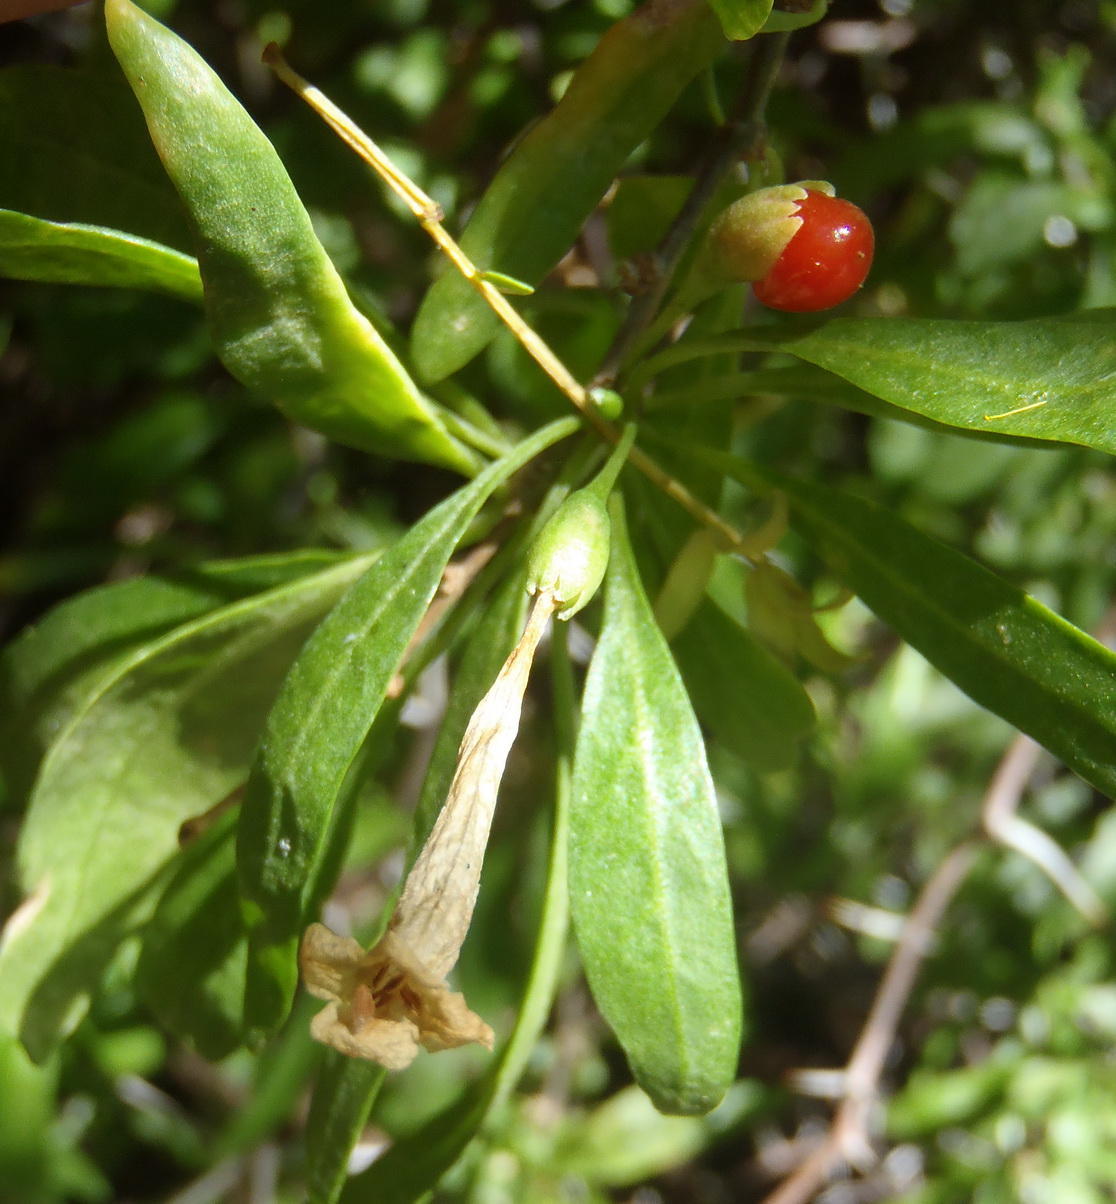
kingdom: Plantae
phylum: Tracheophyta
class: Magnoliopsida
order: Solanales
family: Solanaceae
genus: Lycium
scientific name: Lycium oxycarpum
